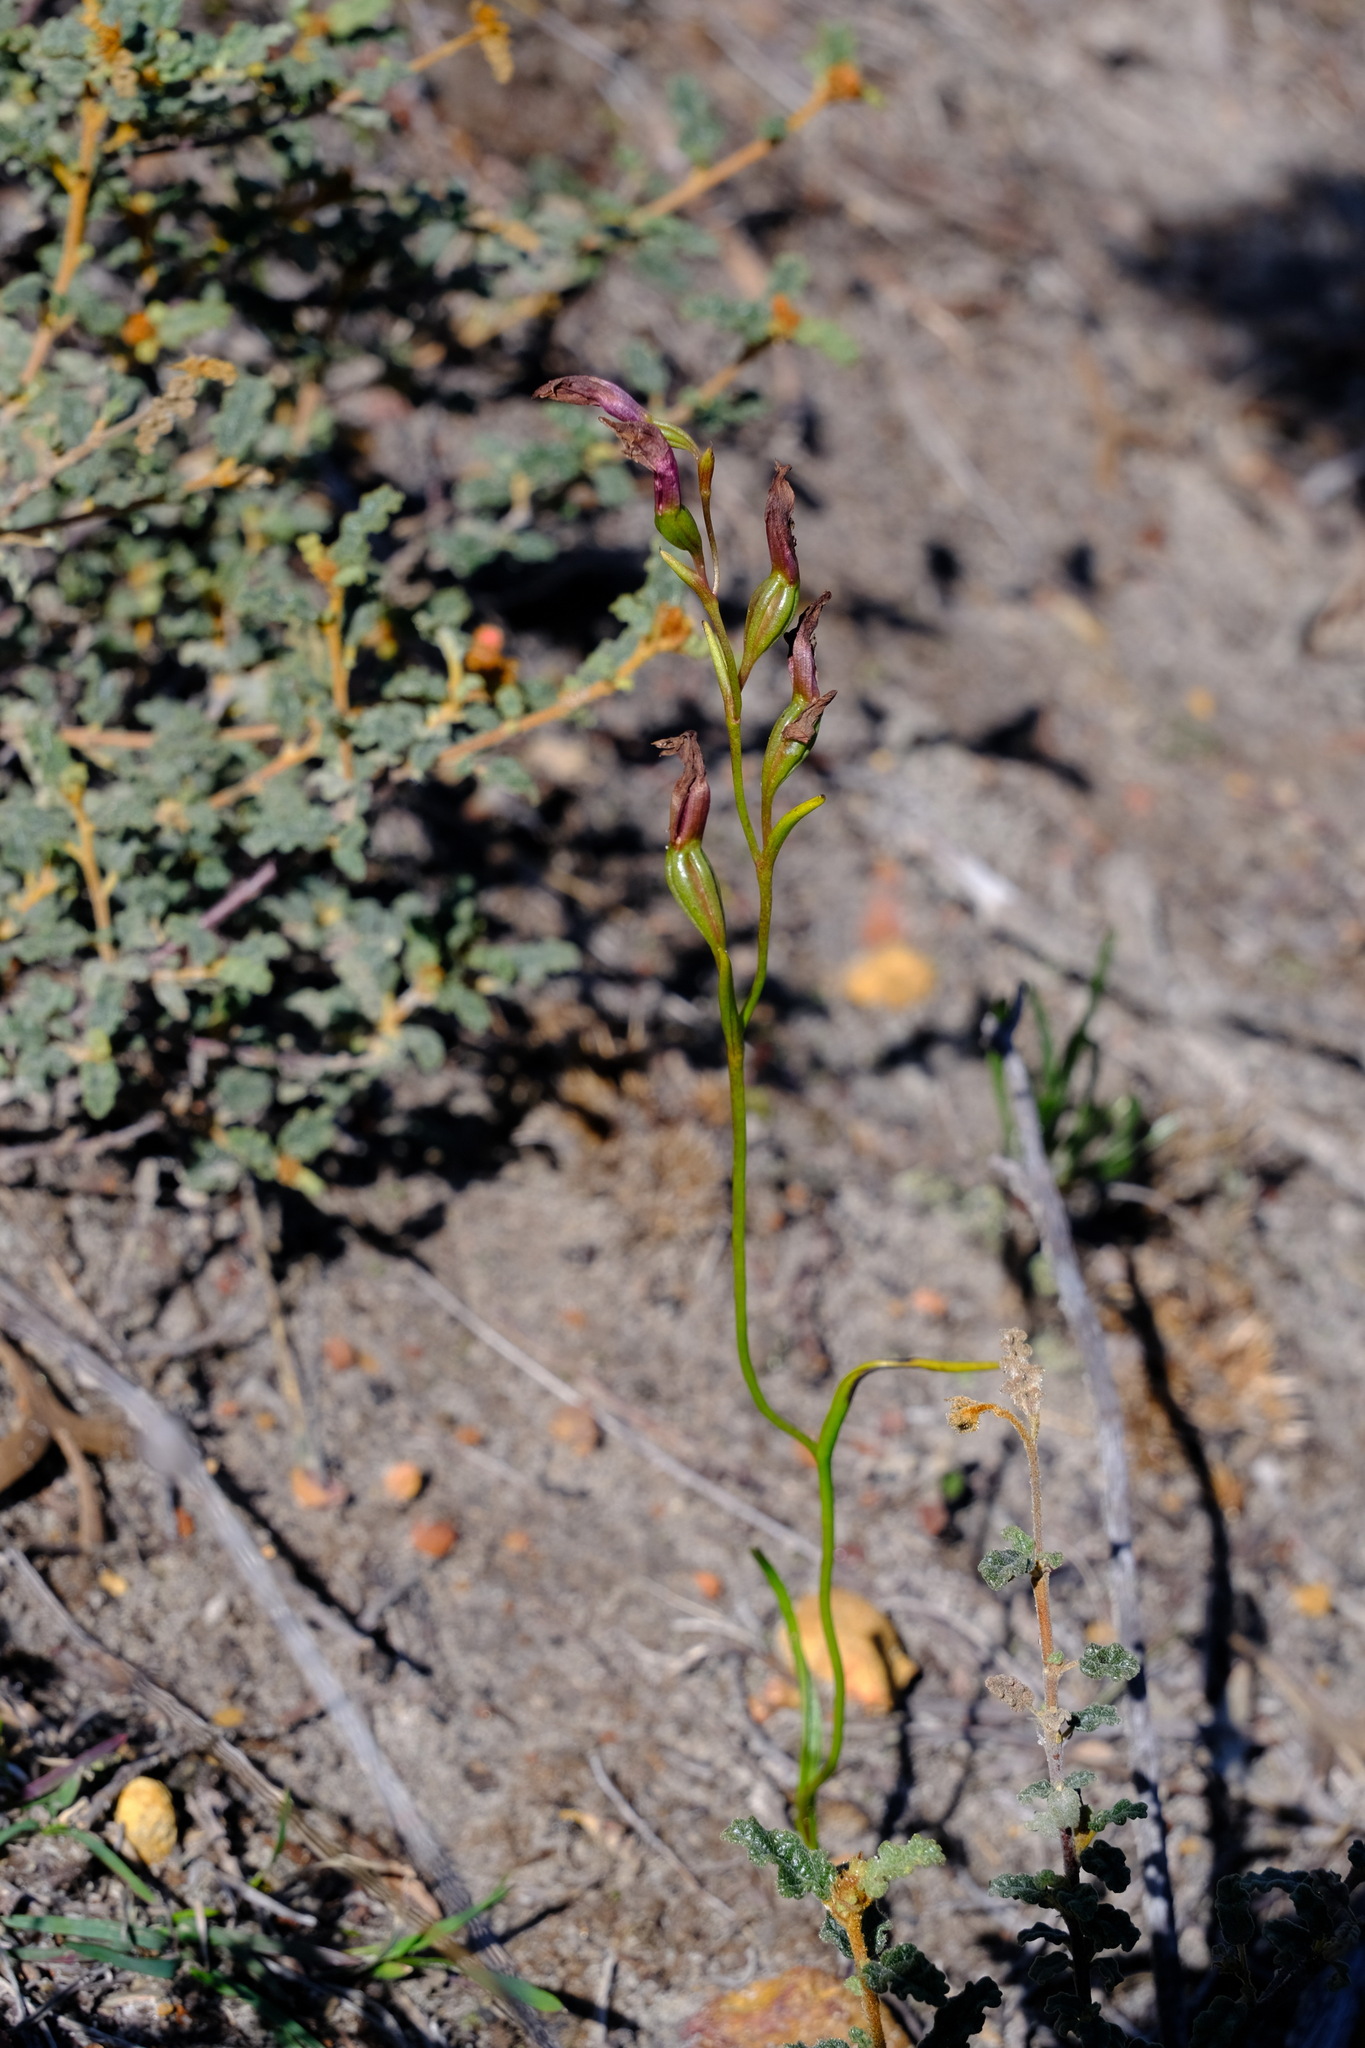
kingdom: Plantae
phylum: Tracheophyta
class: Liliopsida
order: Asparagales
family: Orchidaceae
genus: Thelymitra
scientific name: Thelymitra apiculata
